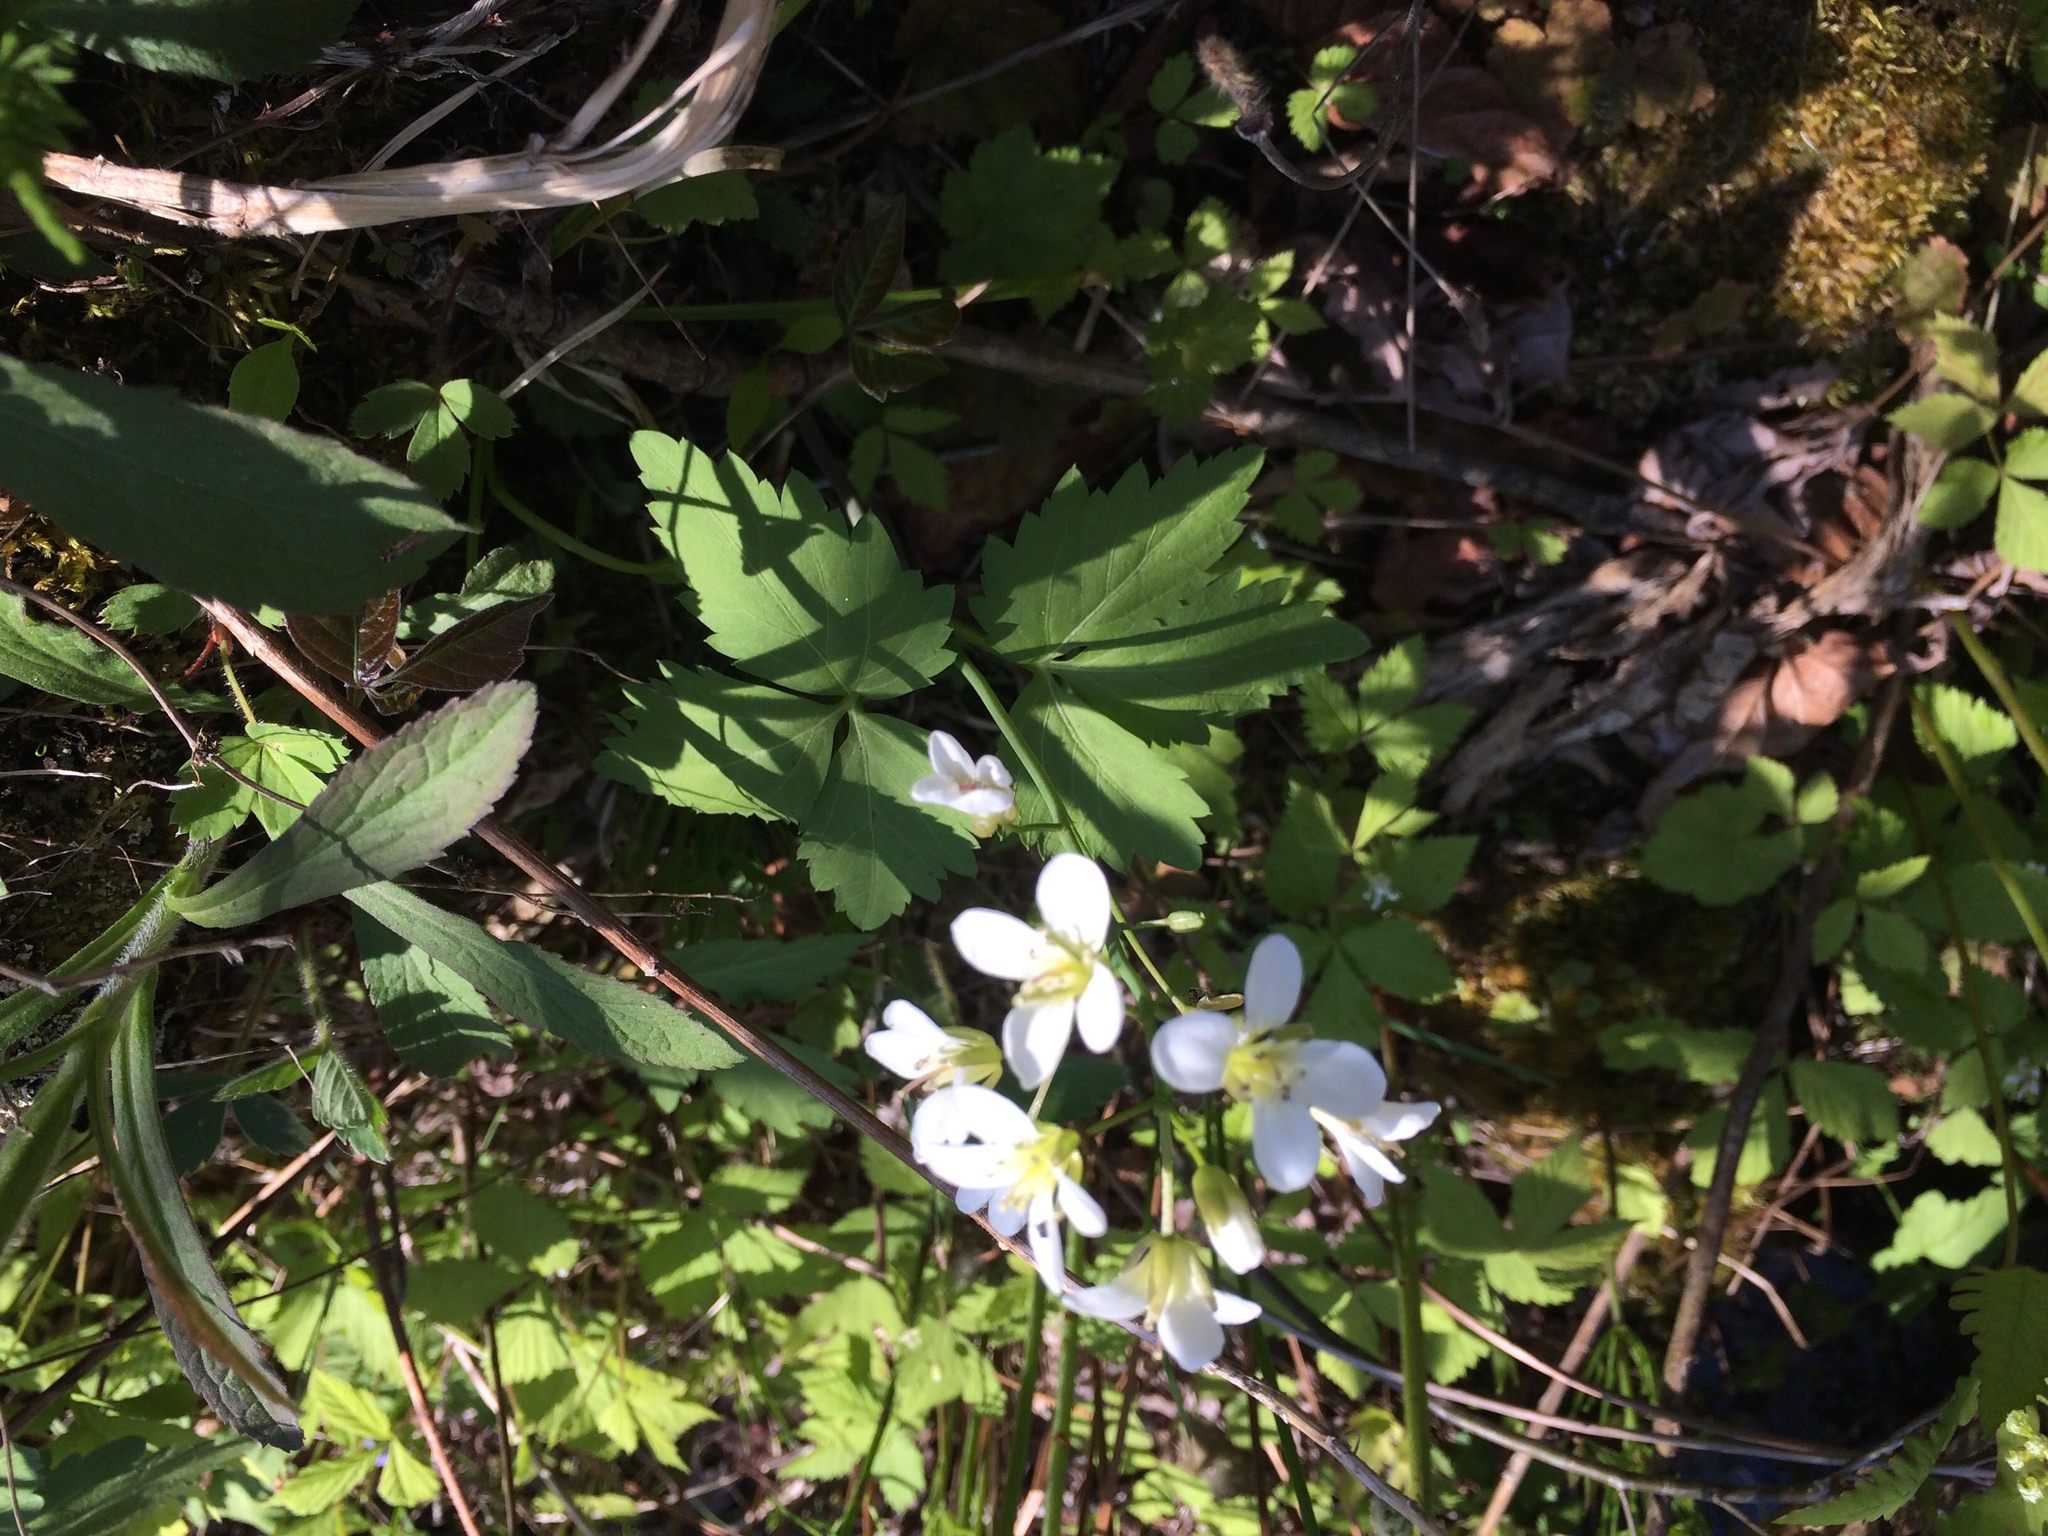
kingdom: Plantae
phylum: Tracheophyta
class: Magnoliopsida
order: Brassicales
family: Brassicaceae
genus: Cardamine
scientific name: Cardamine diphylla
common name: Broad-leaved toothwort
